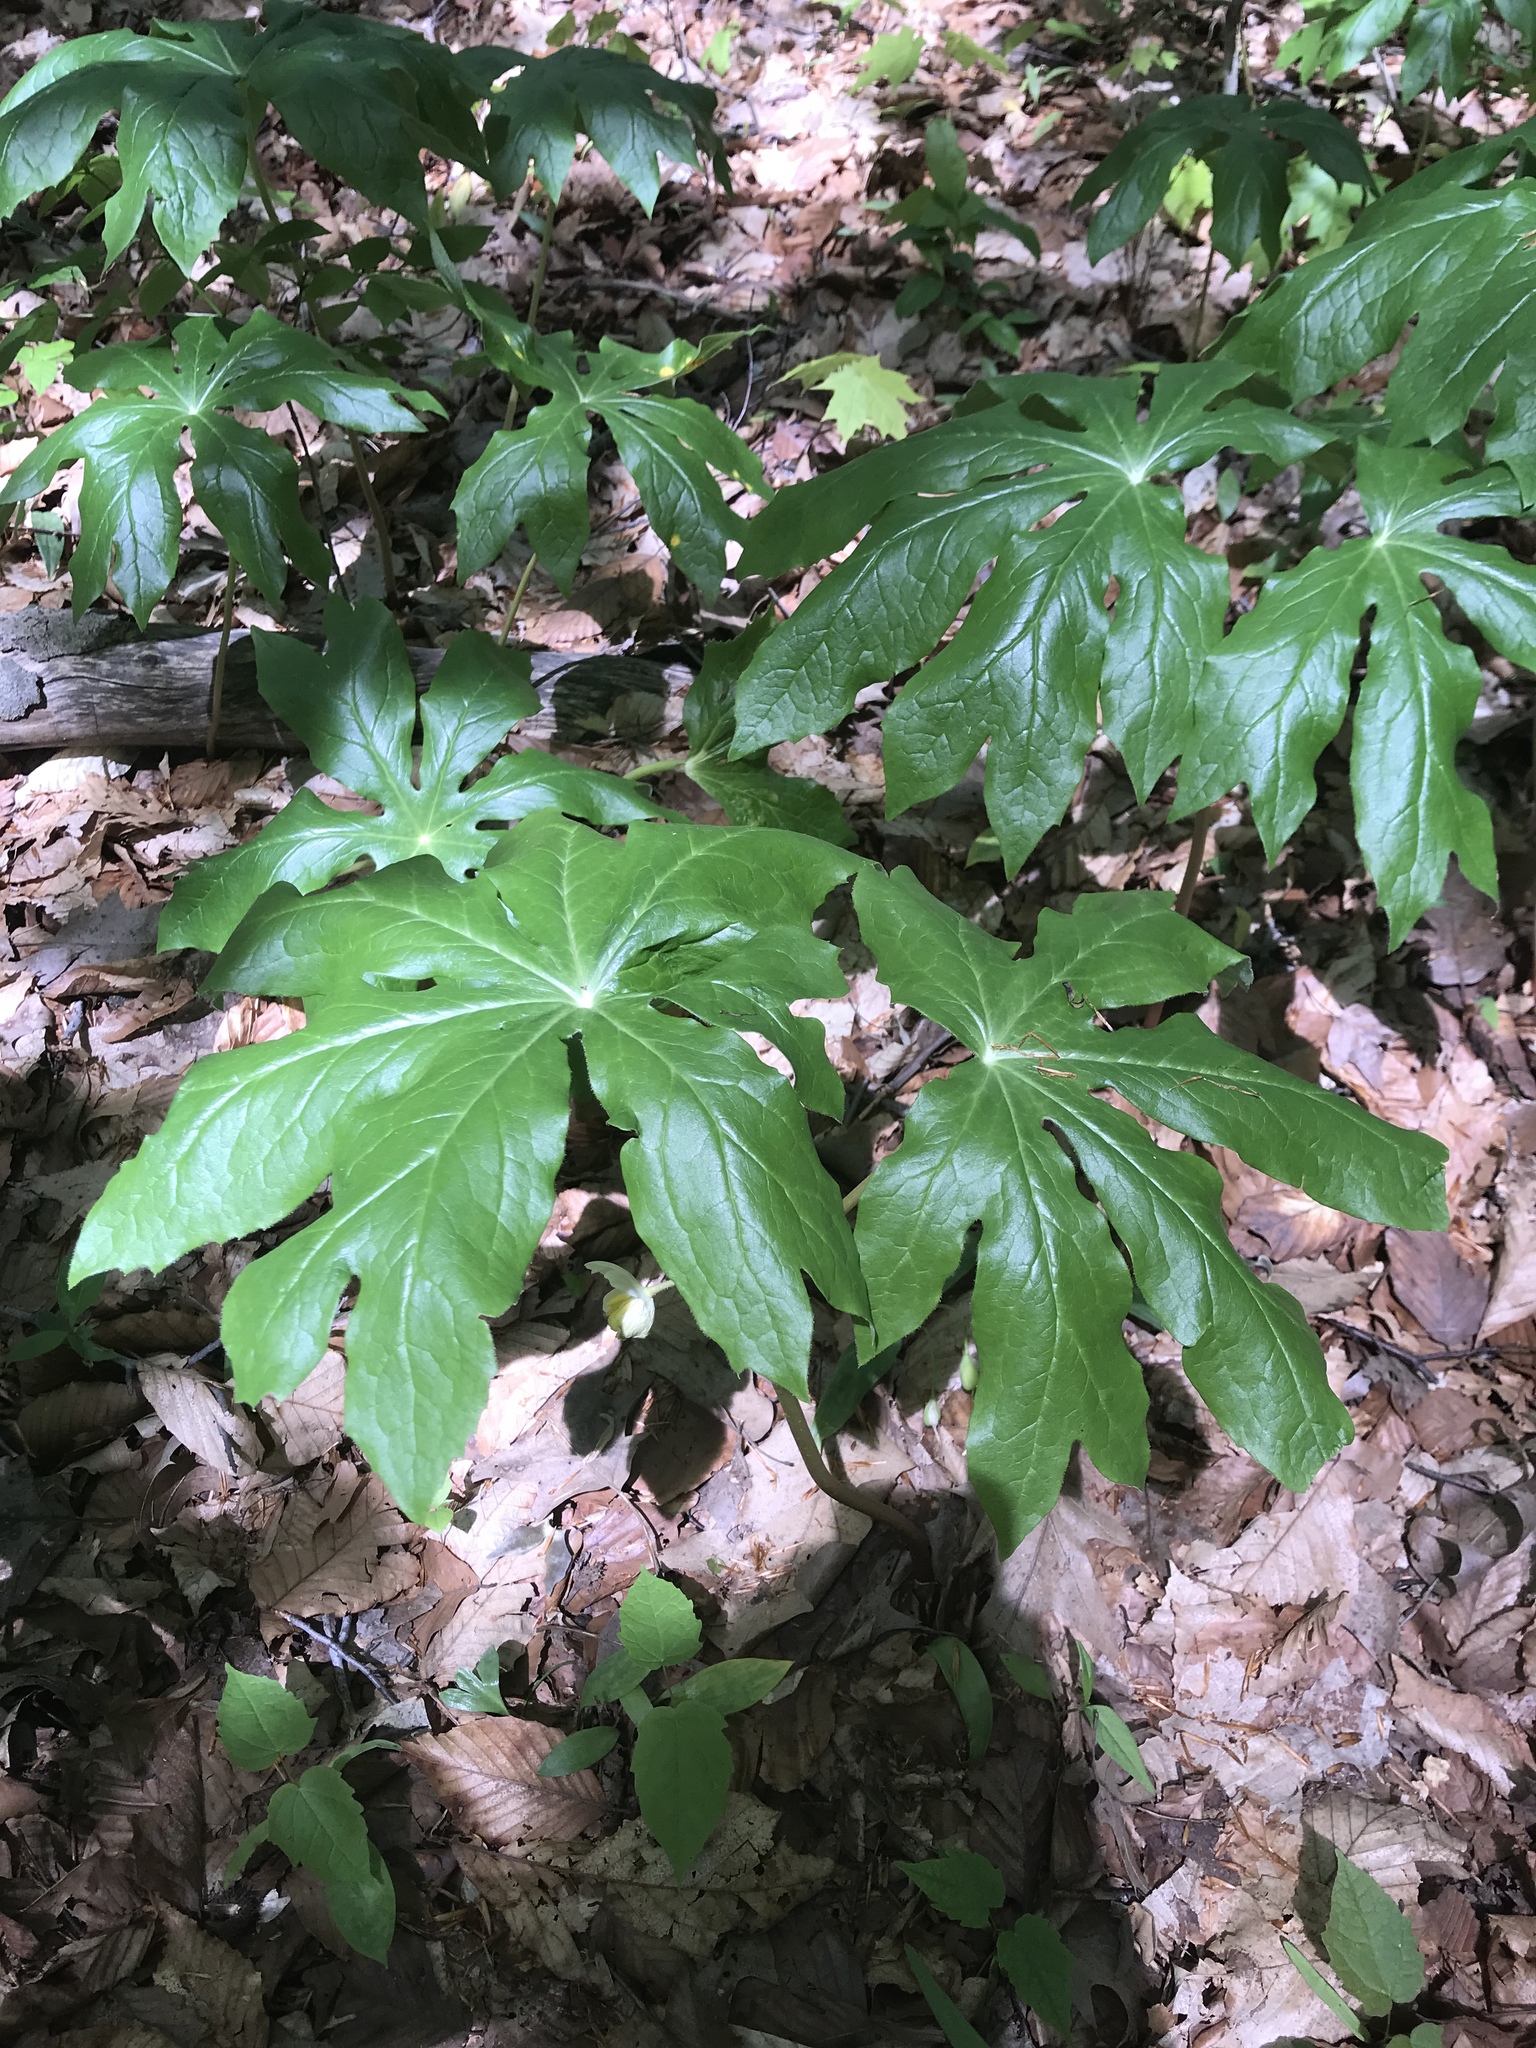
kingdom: Plantae
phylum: Tracheophyta
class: Magnoliopsida
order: Ranunculales
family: Berberidaceae
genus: Podophyllum
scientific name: Podophyllum peltatum
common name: Wild mandrake
